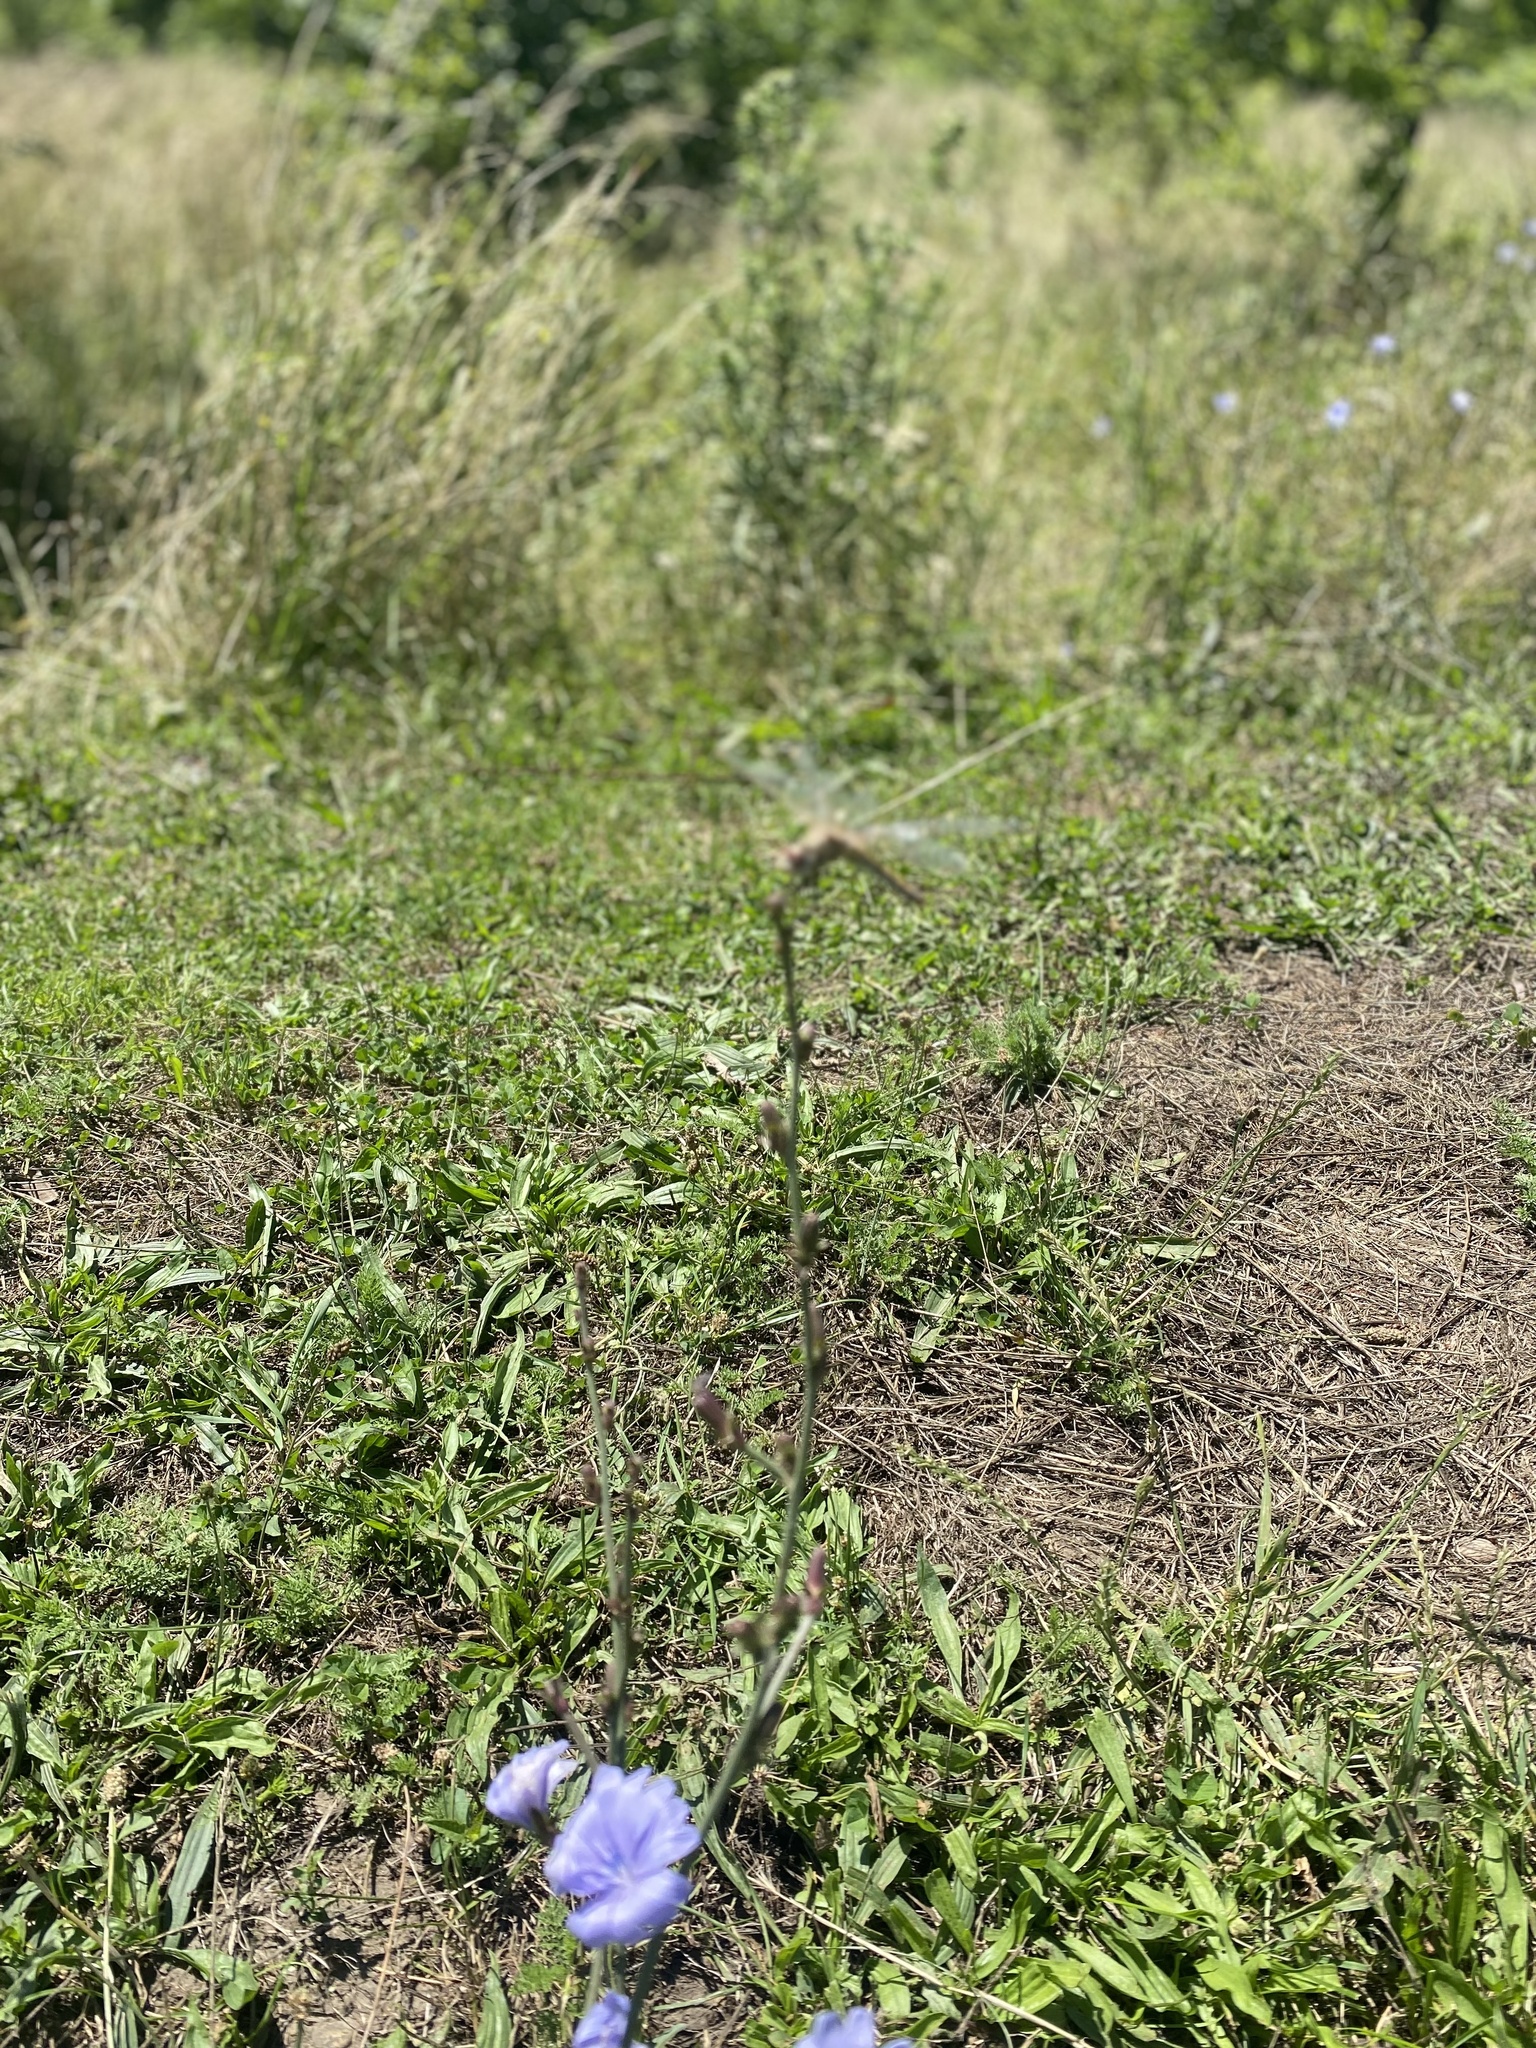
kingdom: Animalia
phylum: Arthropoda
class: Insecta
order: Odonata
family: Libellulidae
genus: Sympetrum
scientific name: Sympetrum fonscolombii
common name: Red-veined darter
